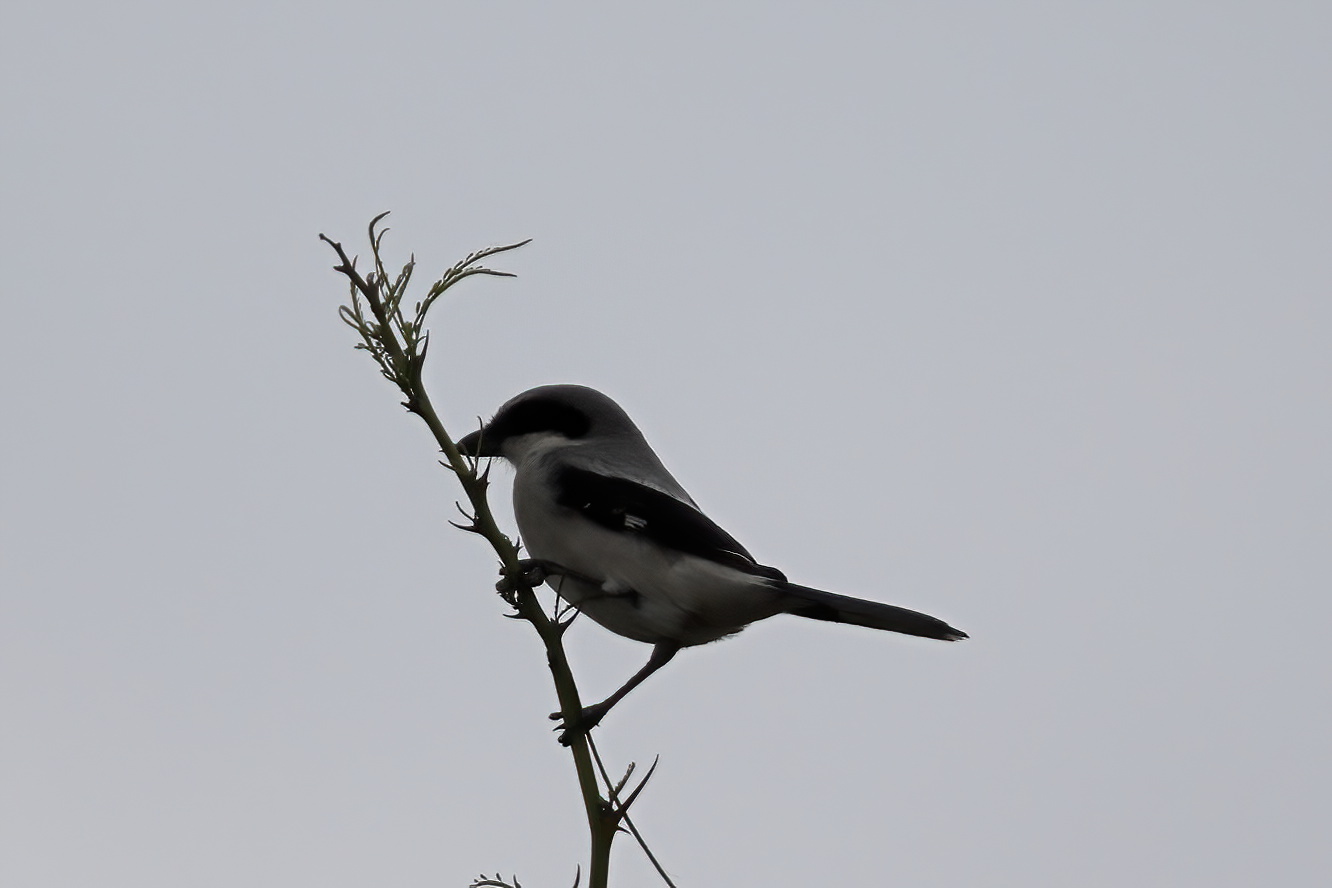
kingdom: Animalia
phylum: Chordata
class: Aves
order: Passeriformes
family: Laniidae
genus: Lanius
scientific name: Lanius ludovicianus
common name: Loggerhead shrike
